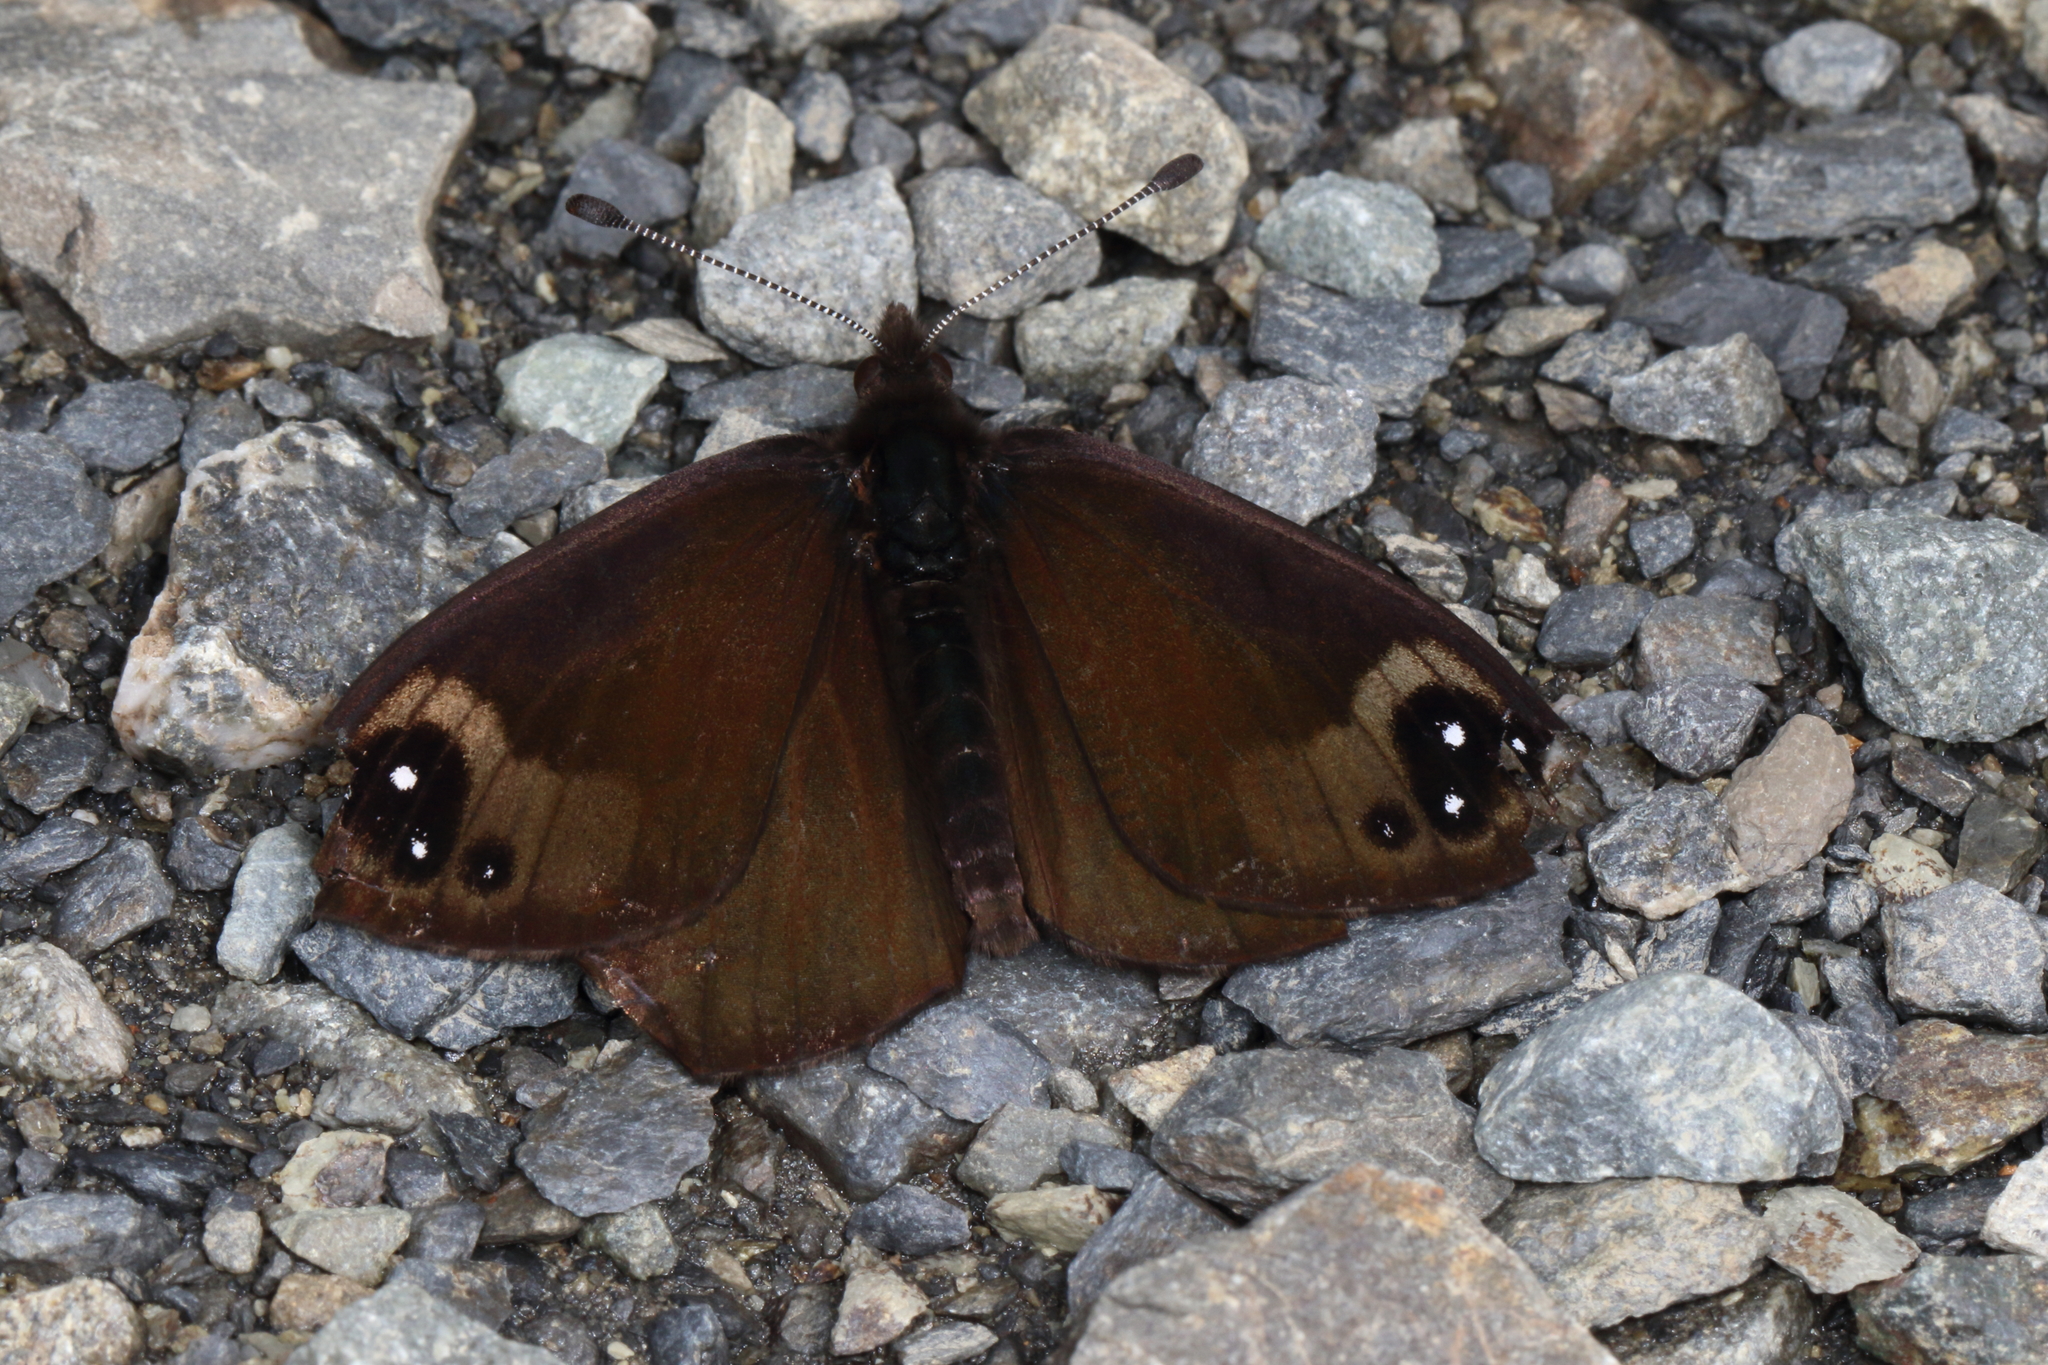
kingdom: Animalia
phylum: Arthropoda
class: Insecta
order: Lepidoptera
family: Nymphalidae
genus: Erebia
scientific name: Erebia Percnodaimon merula
